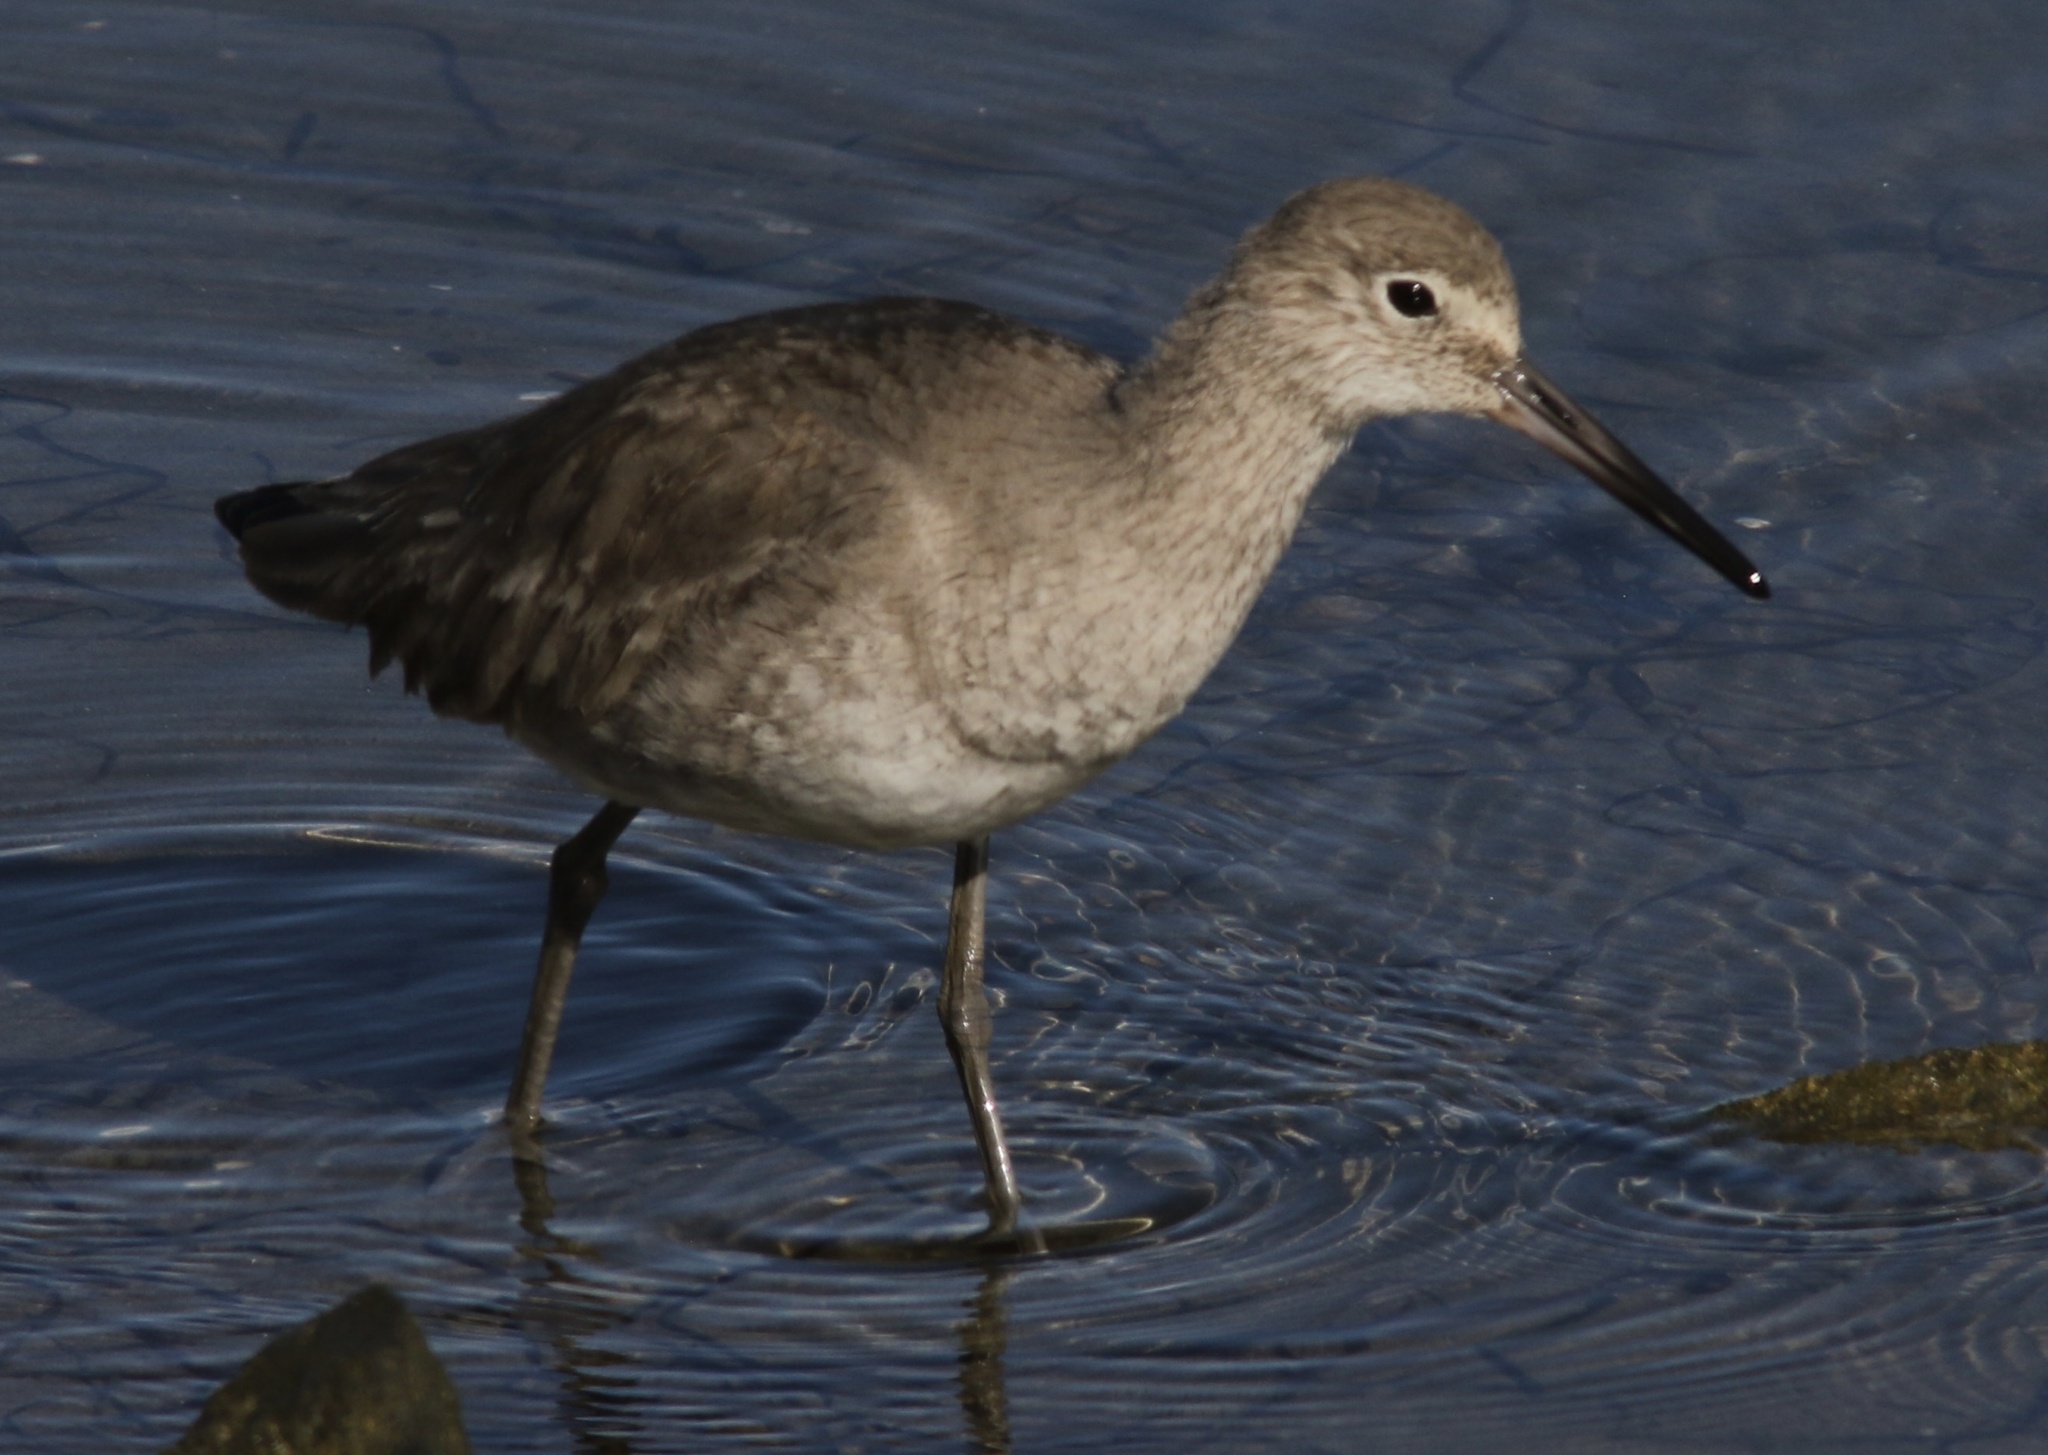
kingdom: Animalia
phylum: Chordata
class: Aves
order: Charadriiformes
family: Scolopacidae
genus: Tringa
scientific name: Tringa semipalmata
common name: Willet
